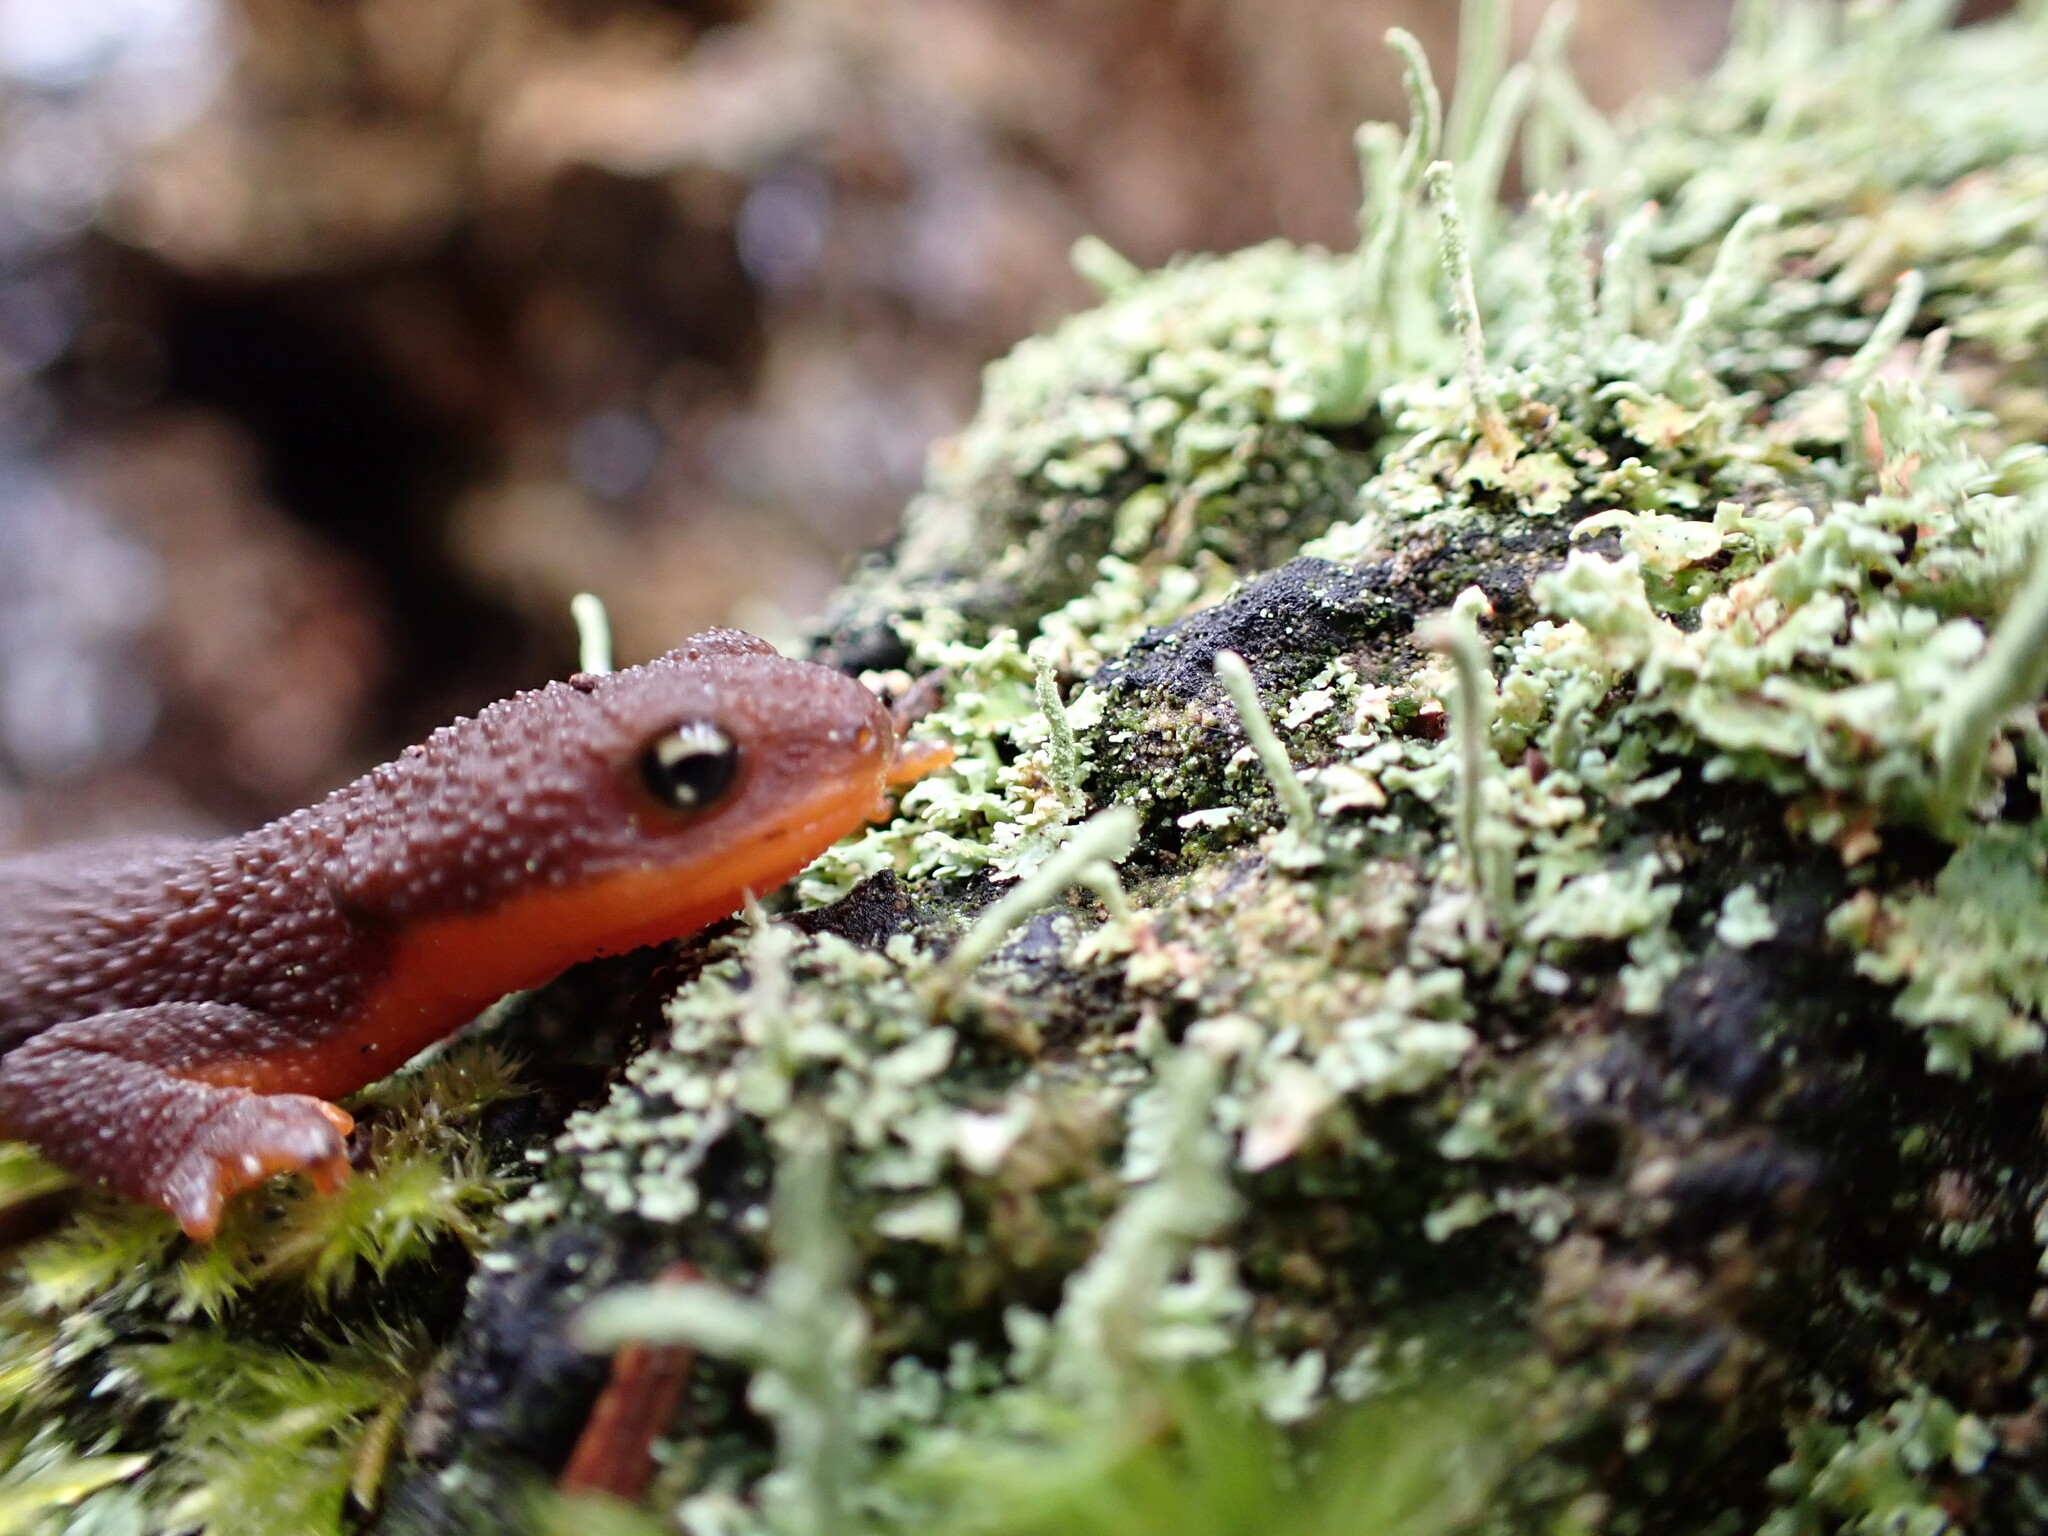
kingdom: Animalia
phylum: Chordata
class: Amphibia
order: Caudata
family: Salamandridae
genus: Taricha
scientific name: Taricha granulosa
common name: Roughskin newt
